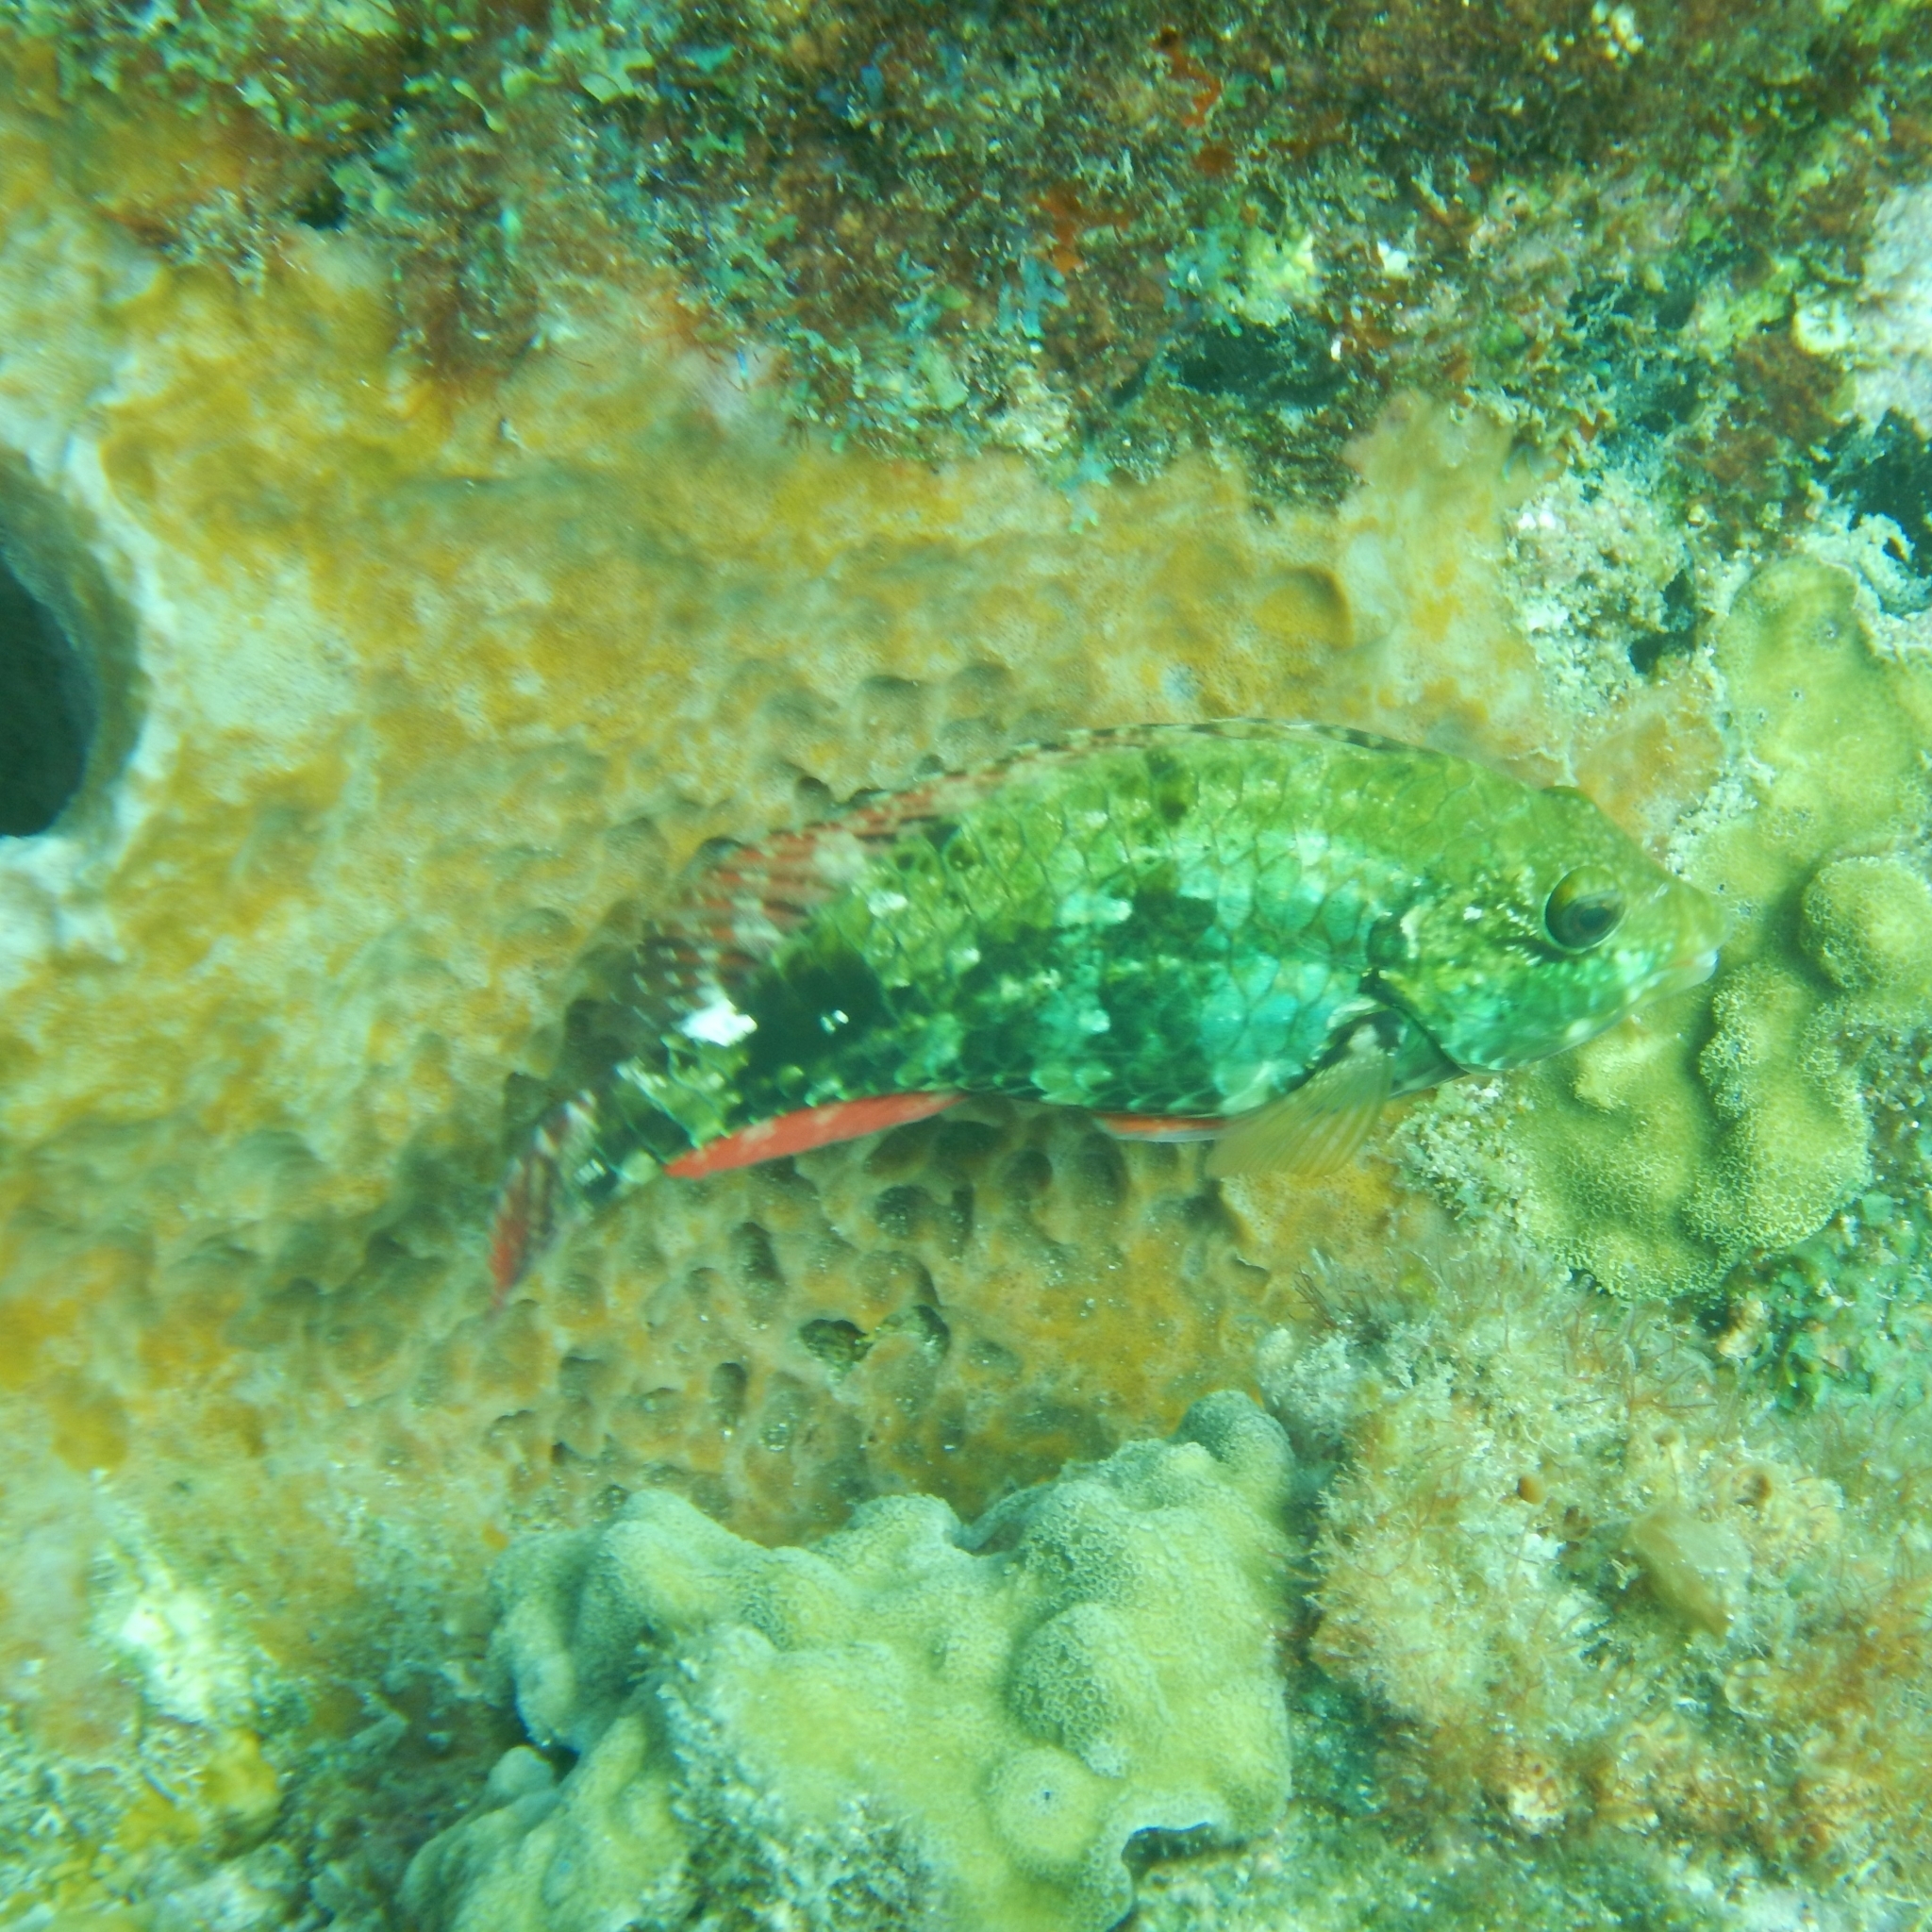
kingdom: Animalia
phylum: Chordata
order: Perciformes
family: Scaridae
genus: Sparisoma
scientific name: Sparisoma aurofrenatum
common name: Redband parrotfish
